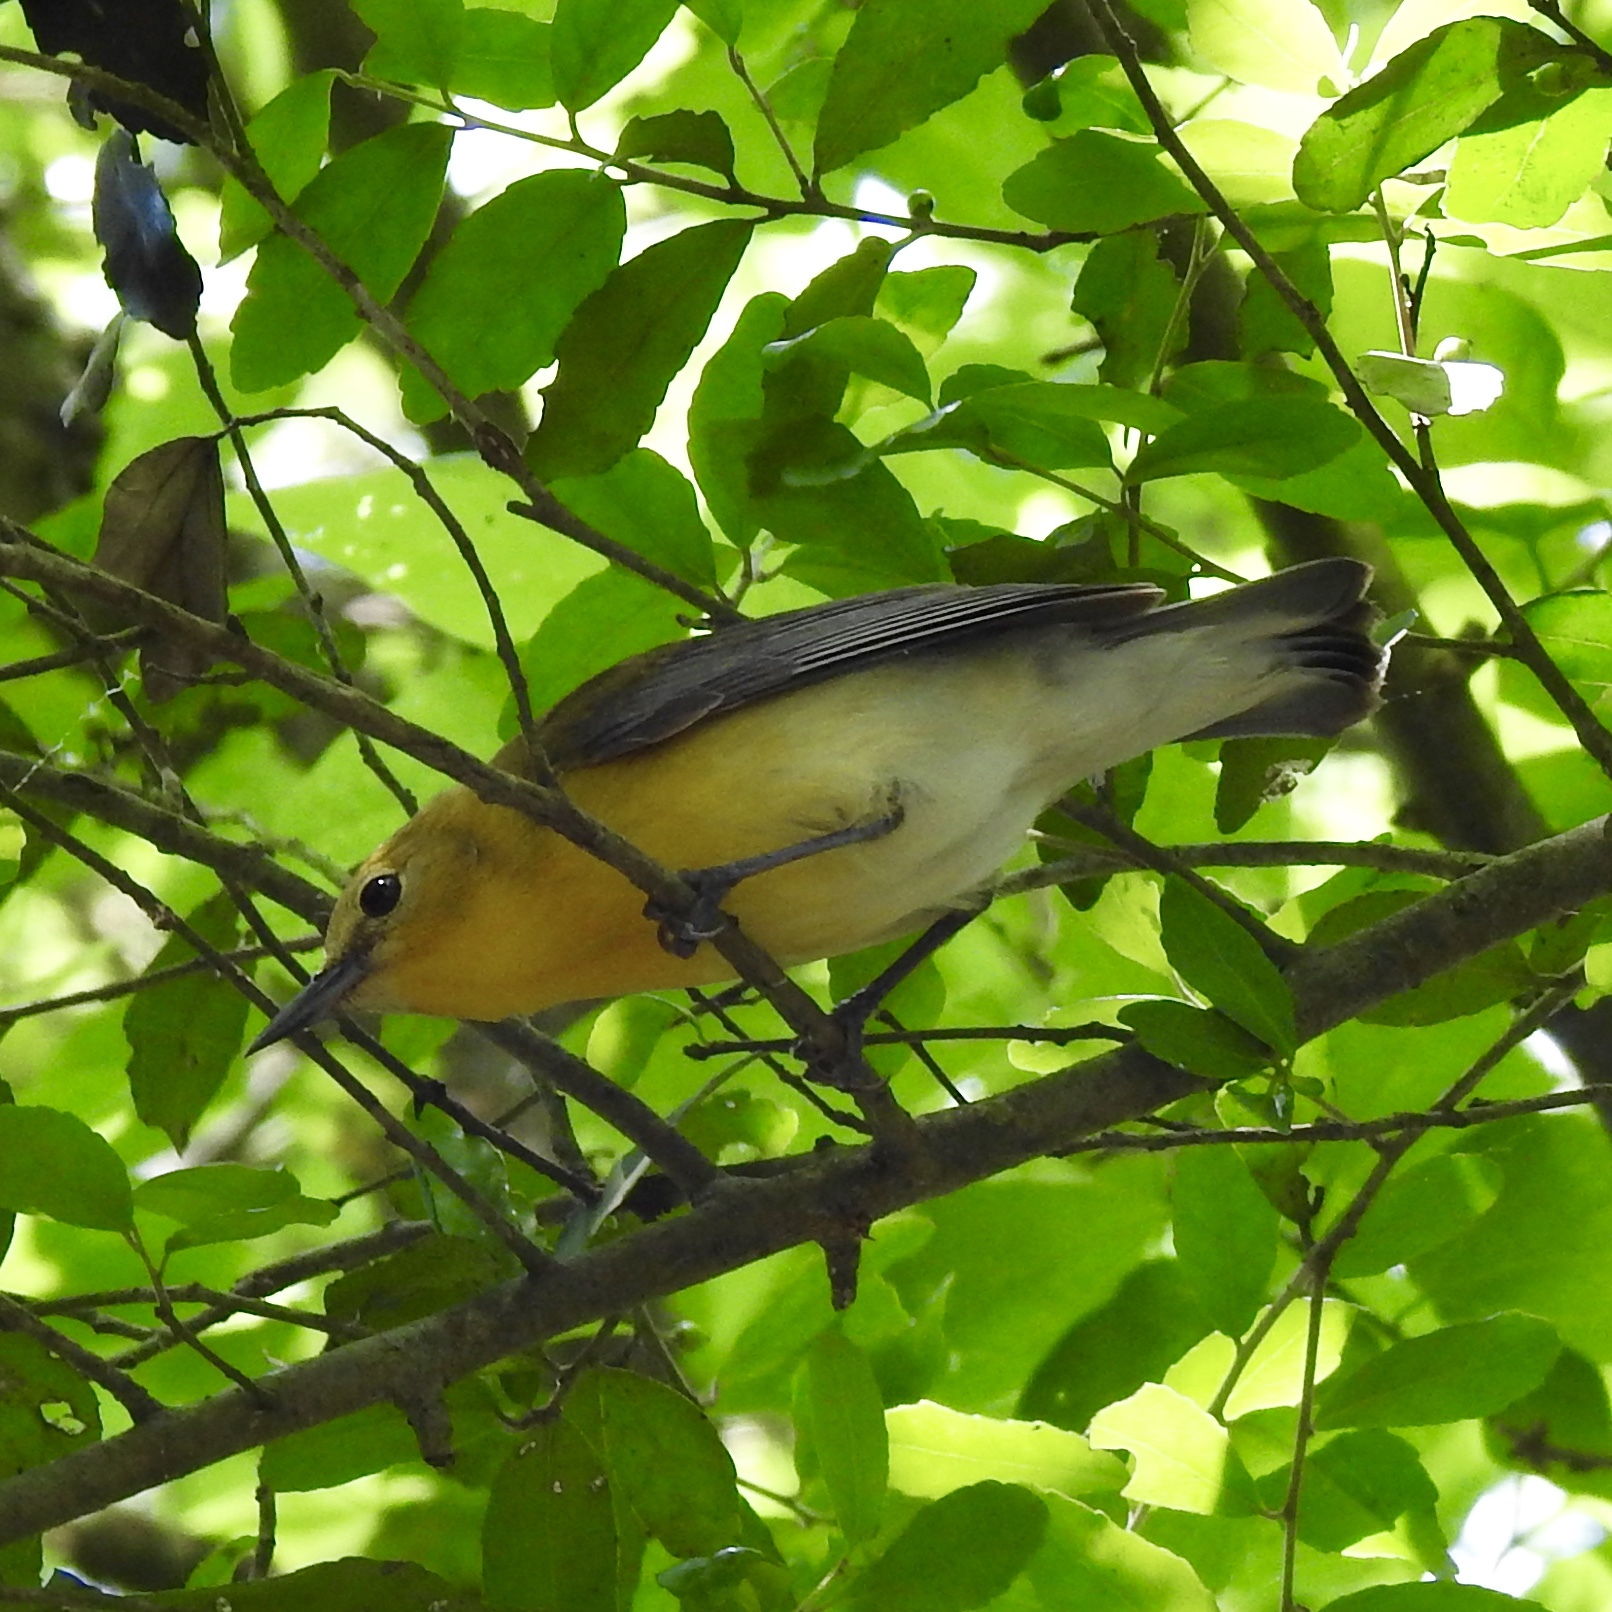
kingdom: Animalia
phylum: Chordata
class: Aves
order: Passeriformes
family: Parulidae
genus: Protonotaria
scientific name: Protonotaria citrea
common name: Prothonotary warbler
